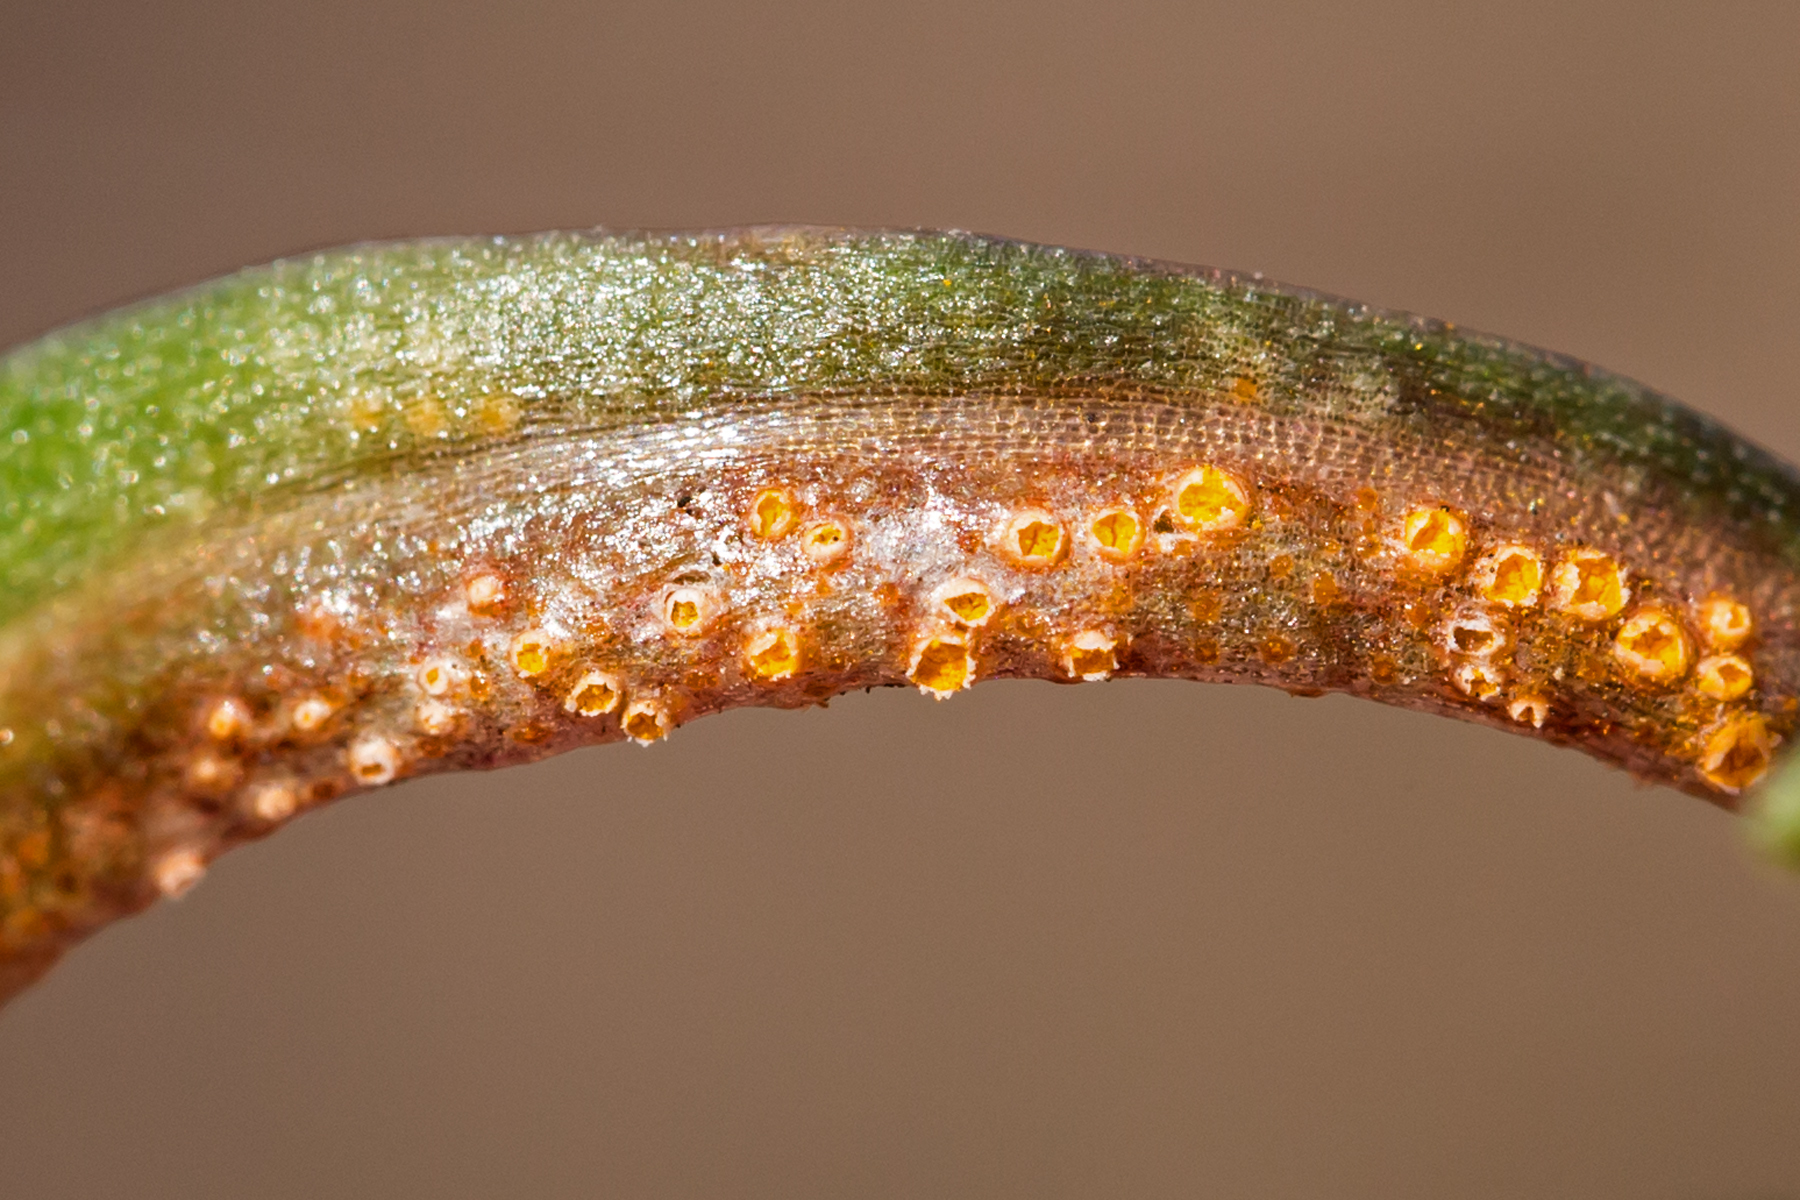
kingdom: Fungi
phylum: Basidiomycota
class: Pucciniomycetes
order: Pucciniales
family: Pucciniaceae
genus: Puccinia
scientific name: Puccinia mariae-wilsoniae
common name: Spring beauty rust
